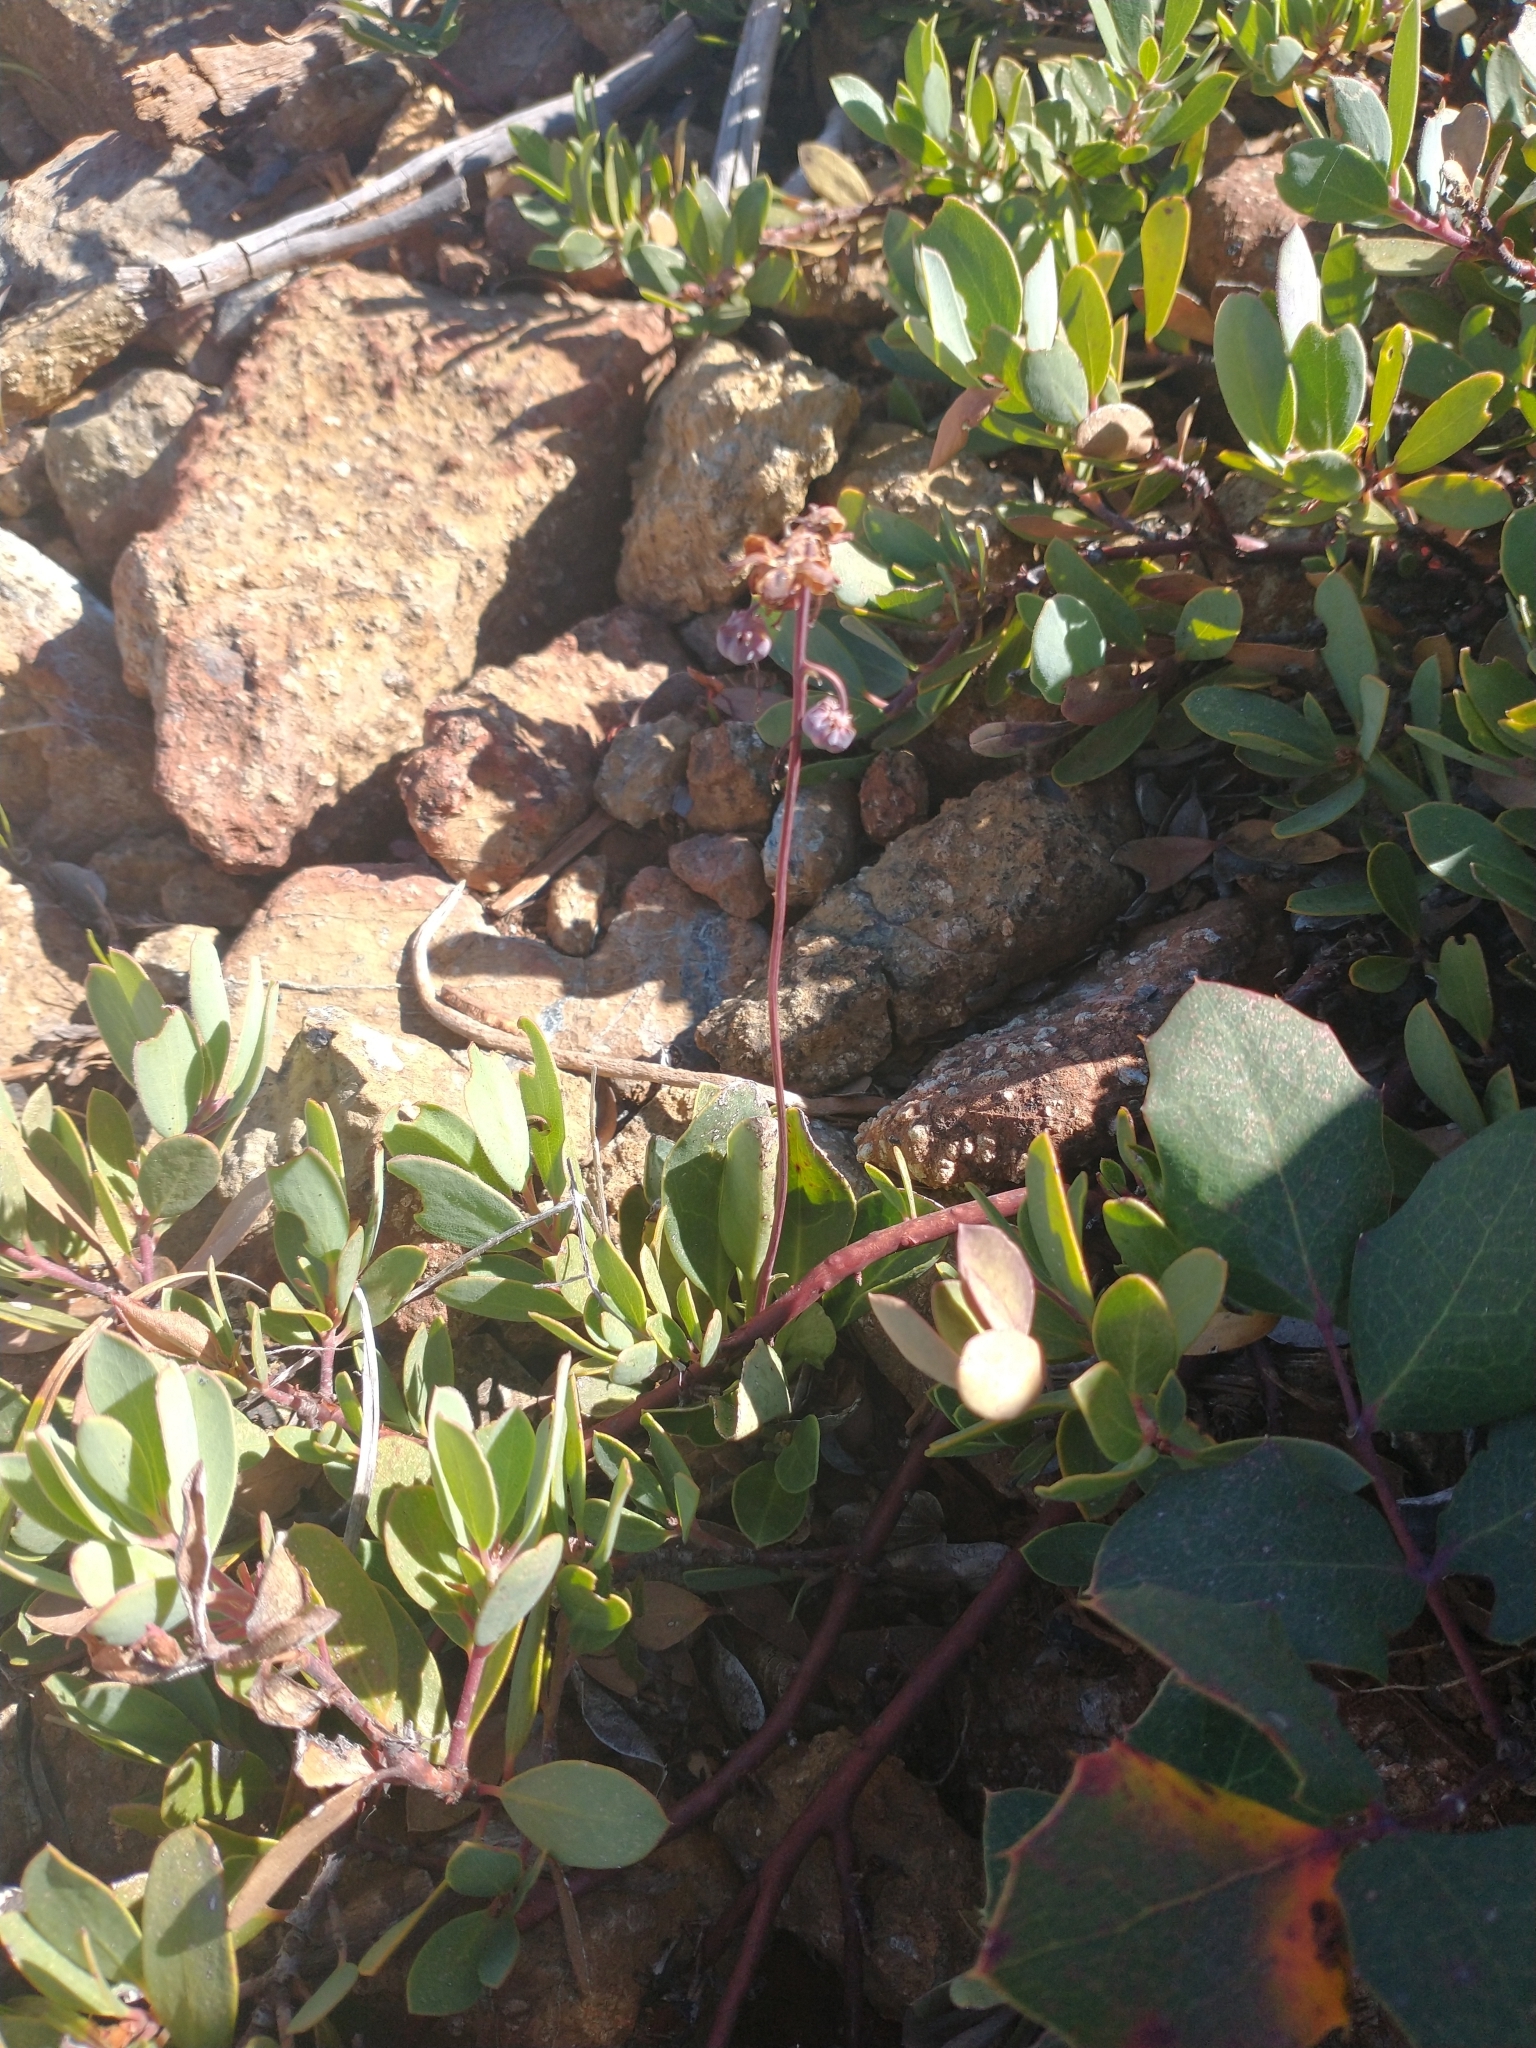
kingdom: Plantae
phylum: Tracheophyta
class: Magnoliopsida
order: Ericales
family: Ericaceae
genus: Pyrola
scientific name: Pyrola dentata
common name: Tooth-leaved wintergreen
